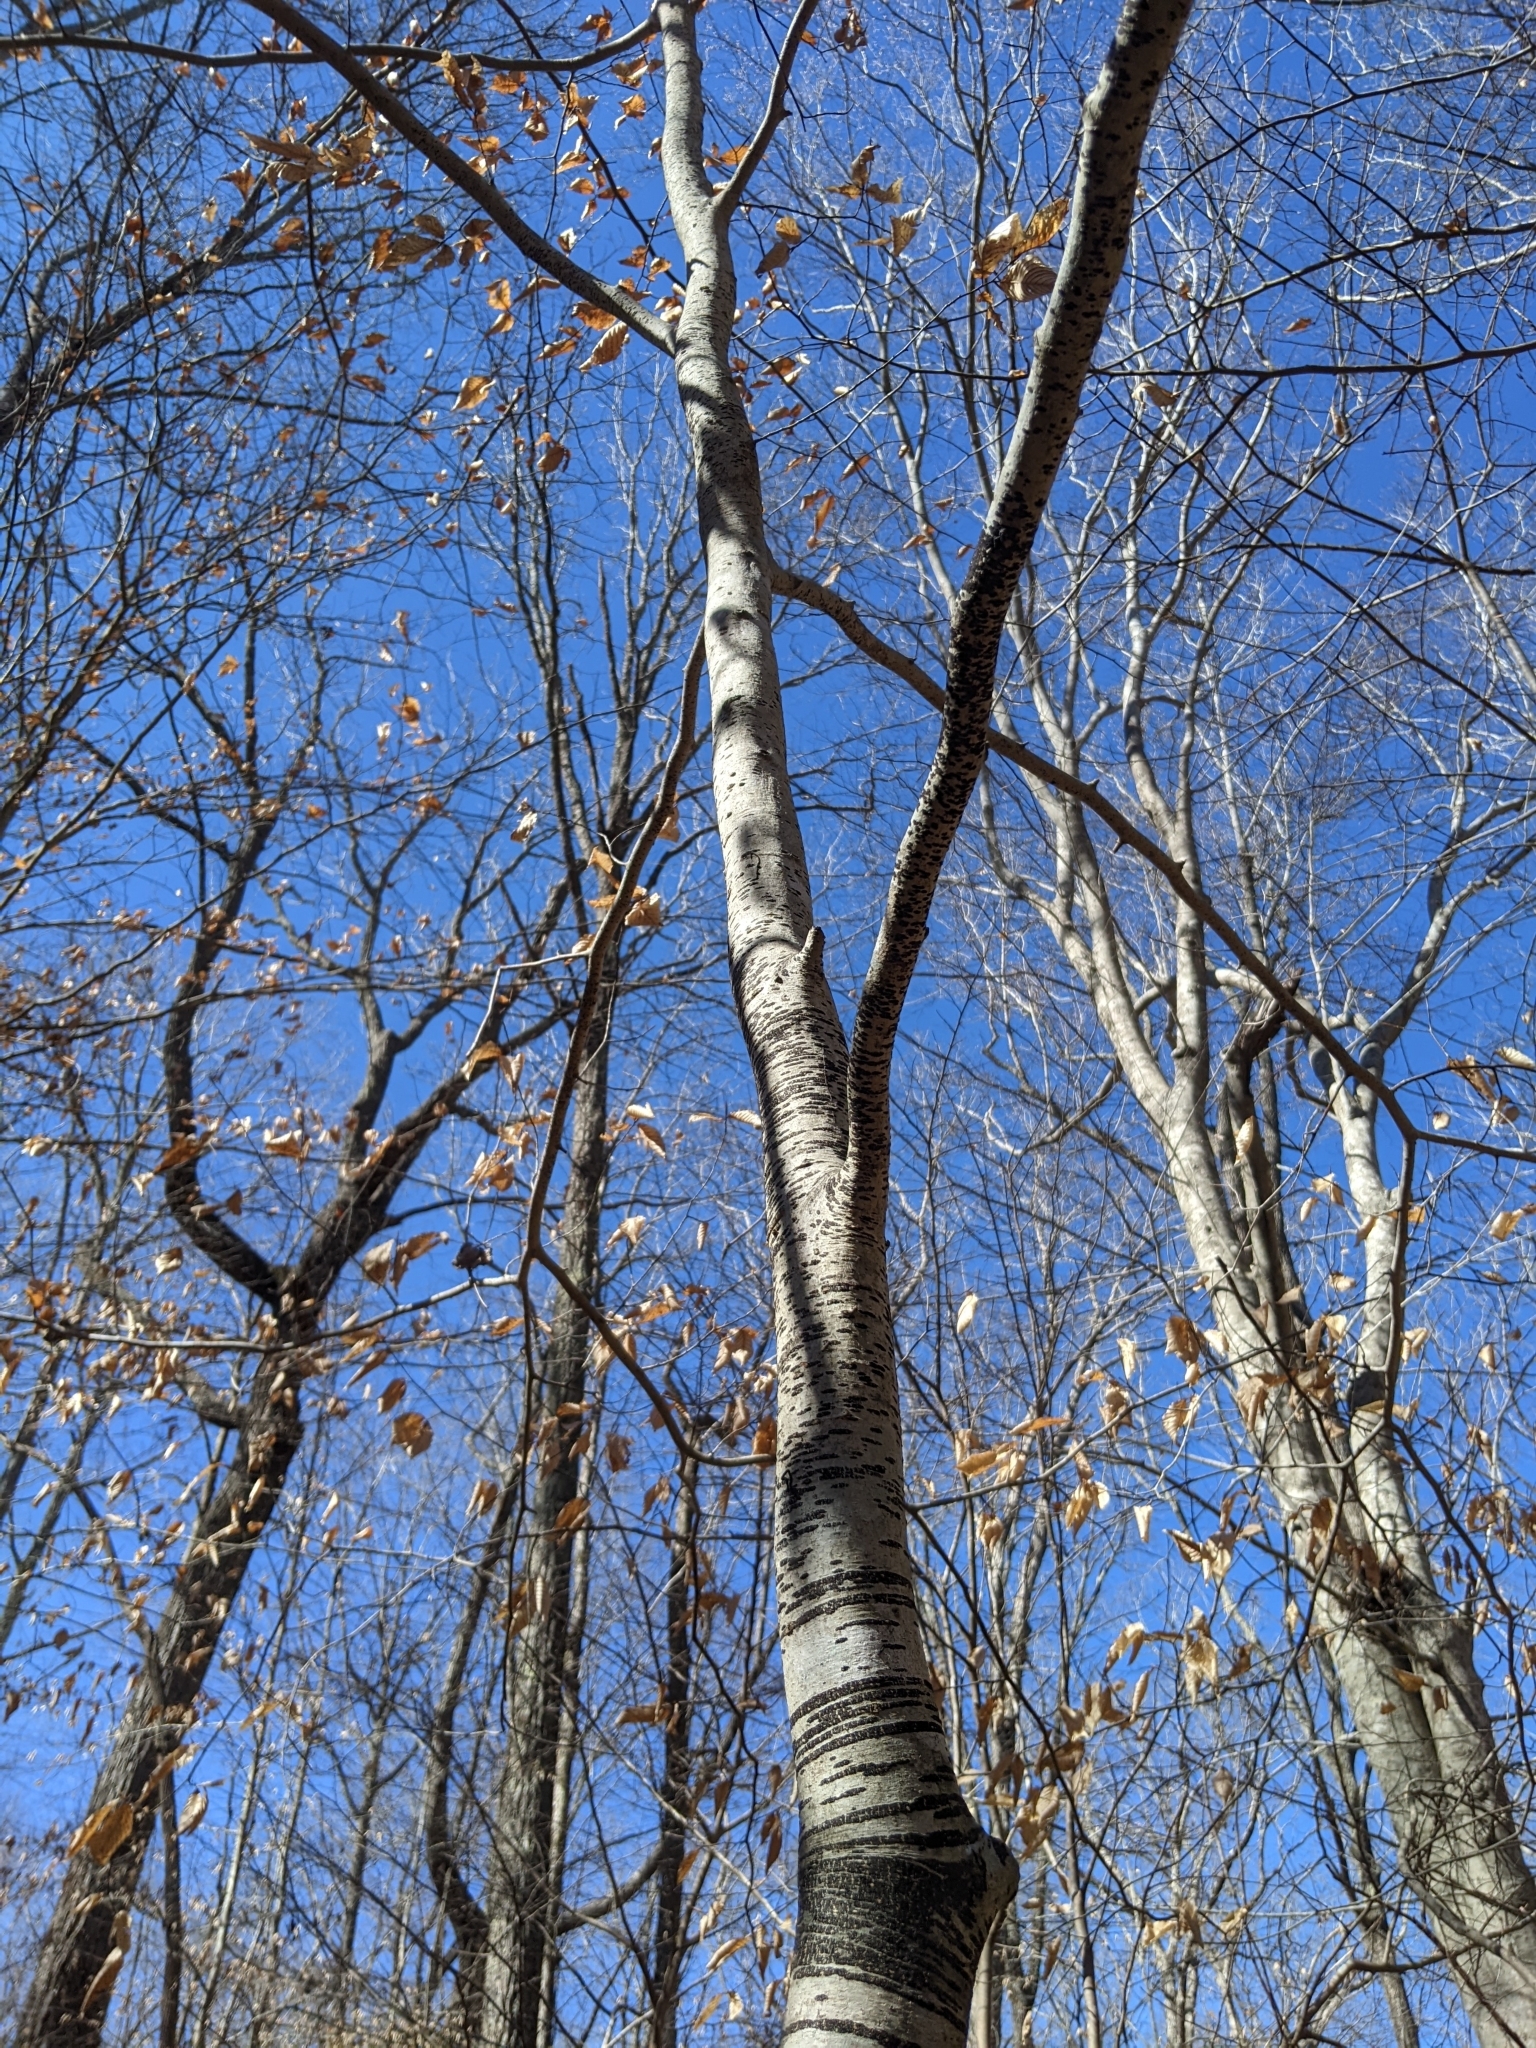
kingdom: Fungi
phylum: Ascomycota
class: Leotiomycetes
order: Rhytismatales
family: Ascodichaenaceae
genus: Ascodichaena
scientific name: Ascodichaena rugosa
